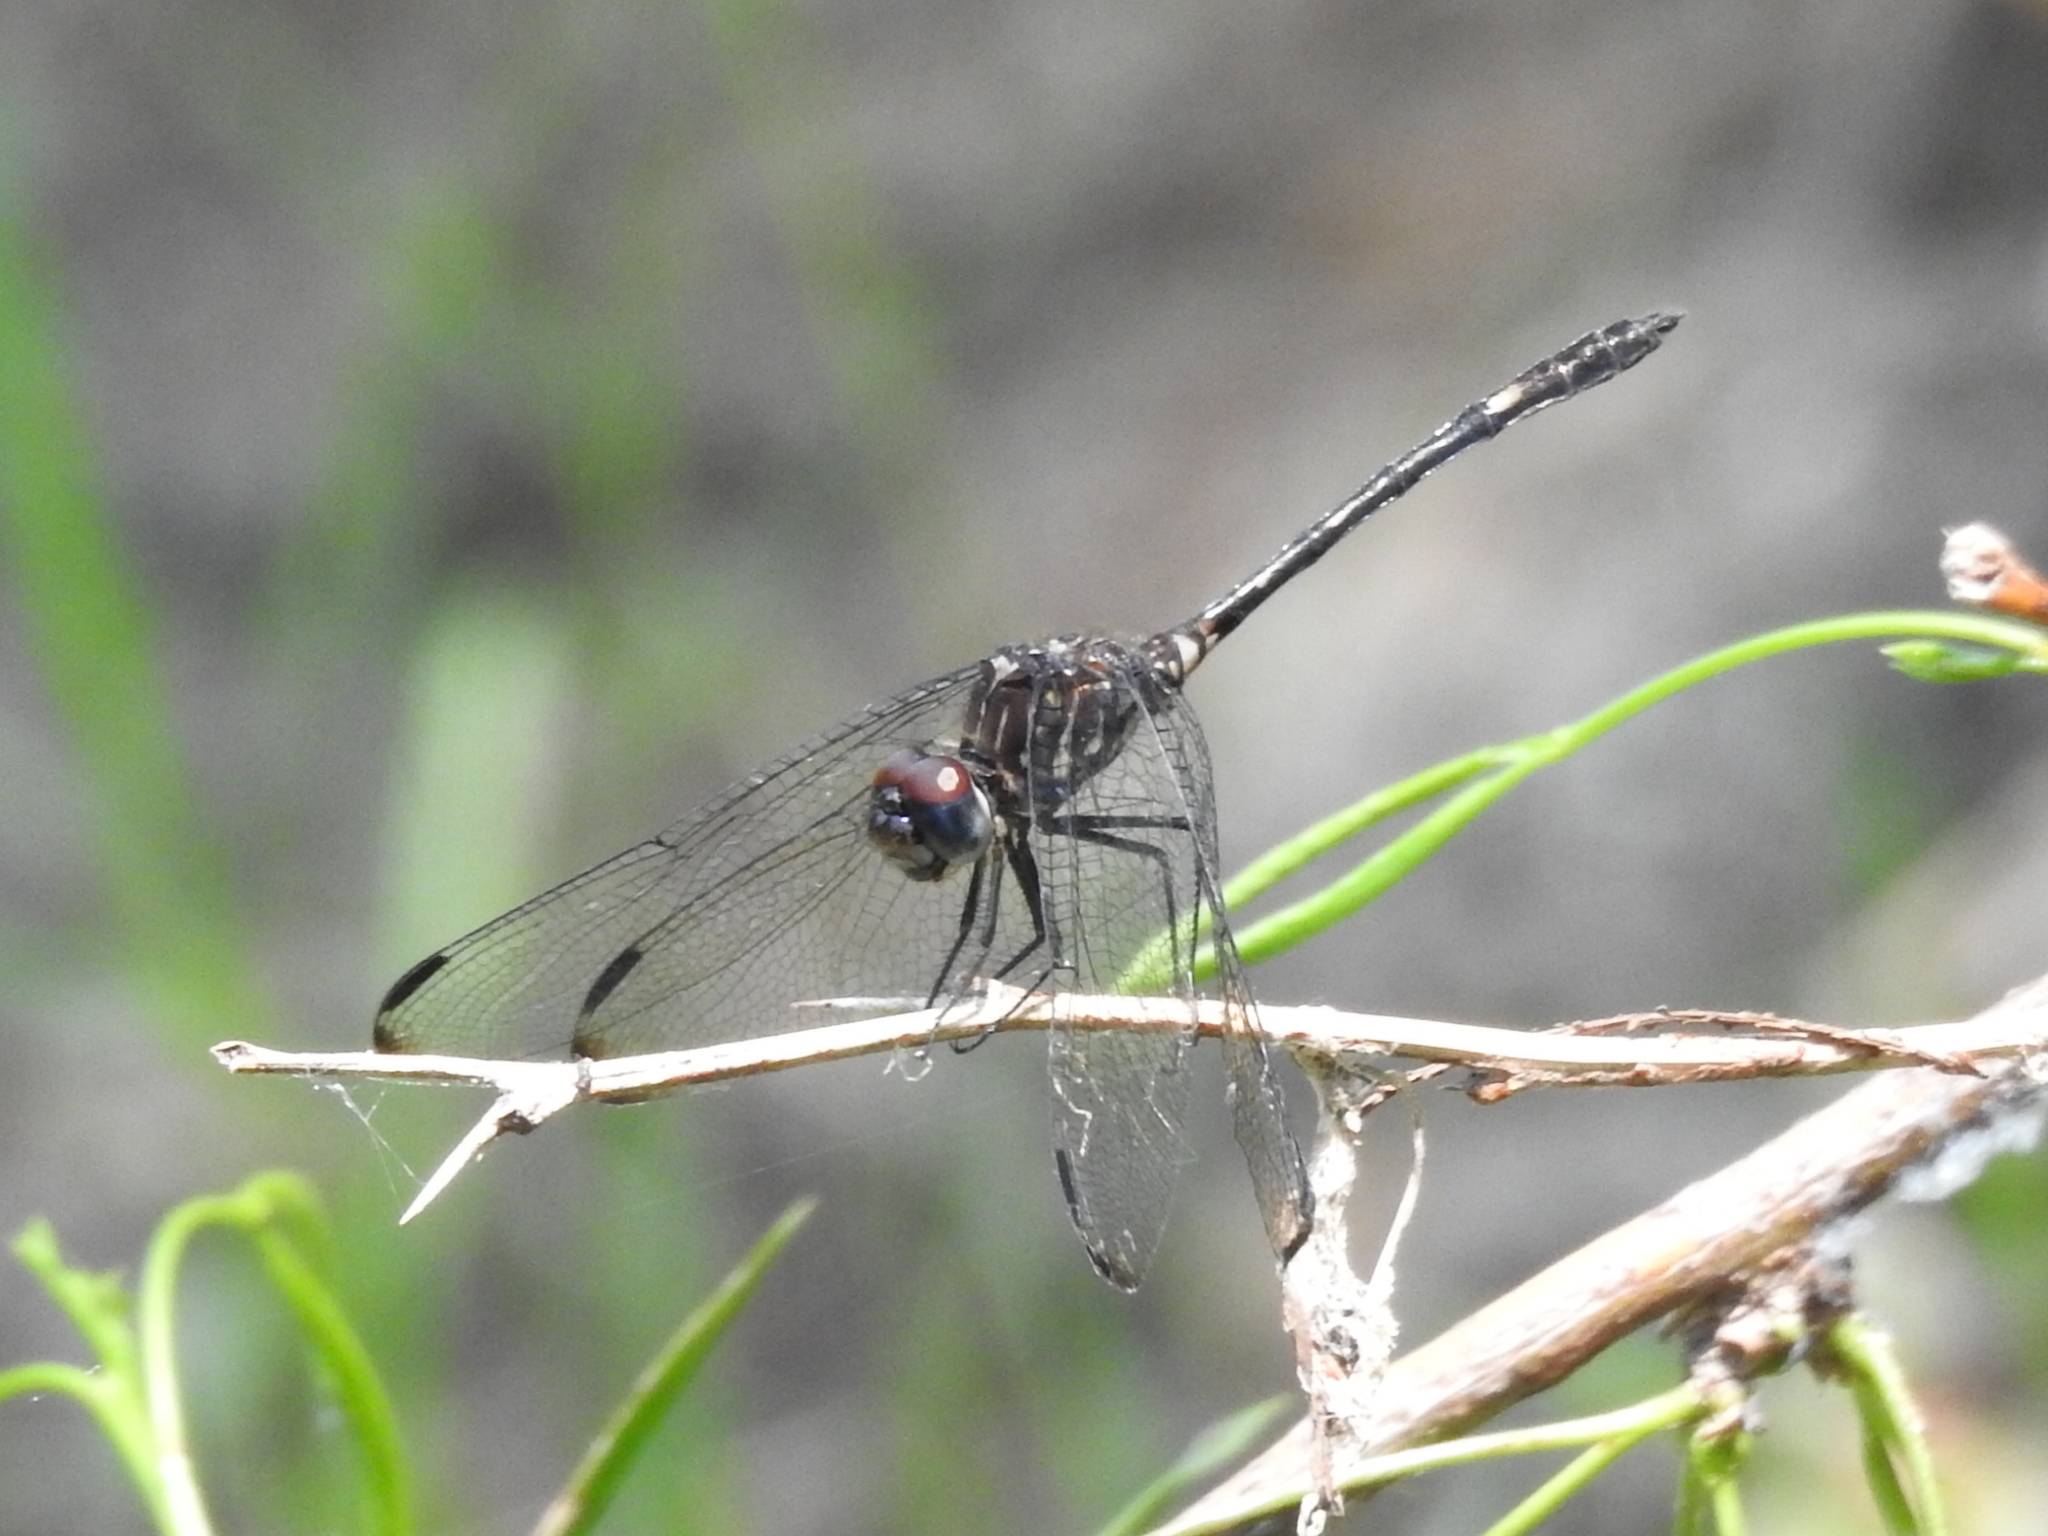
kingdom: Animalia
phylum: Arthropoda
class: Insecta
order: Odonata
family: Libellulidae
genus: Dythemis
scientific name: Dythemis velox
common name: Swift setwing
